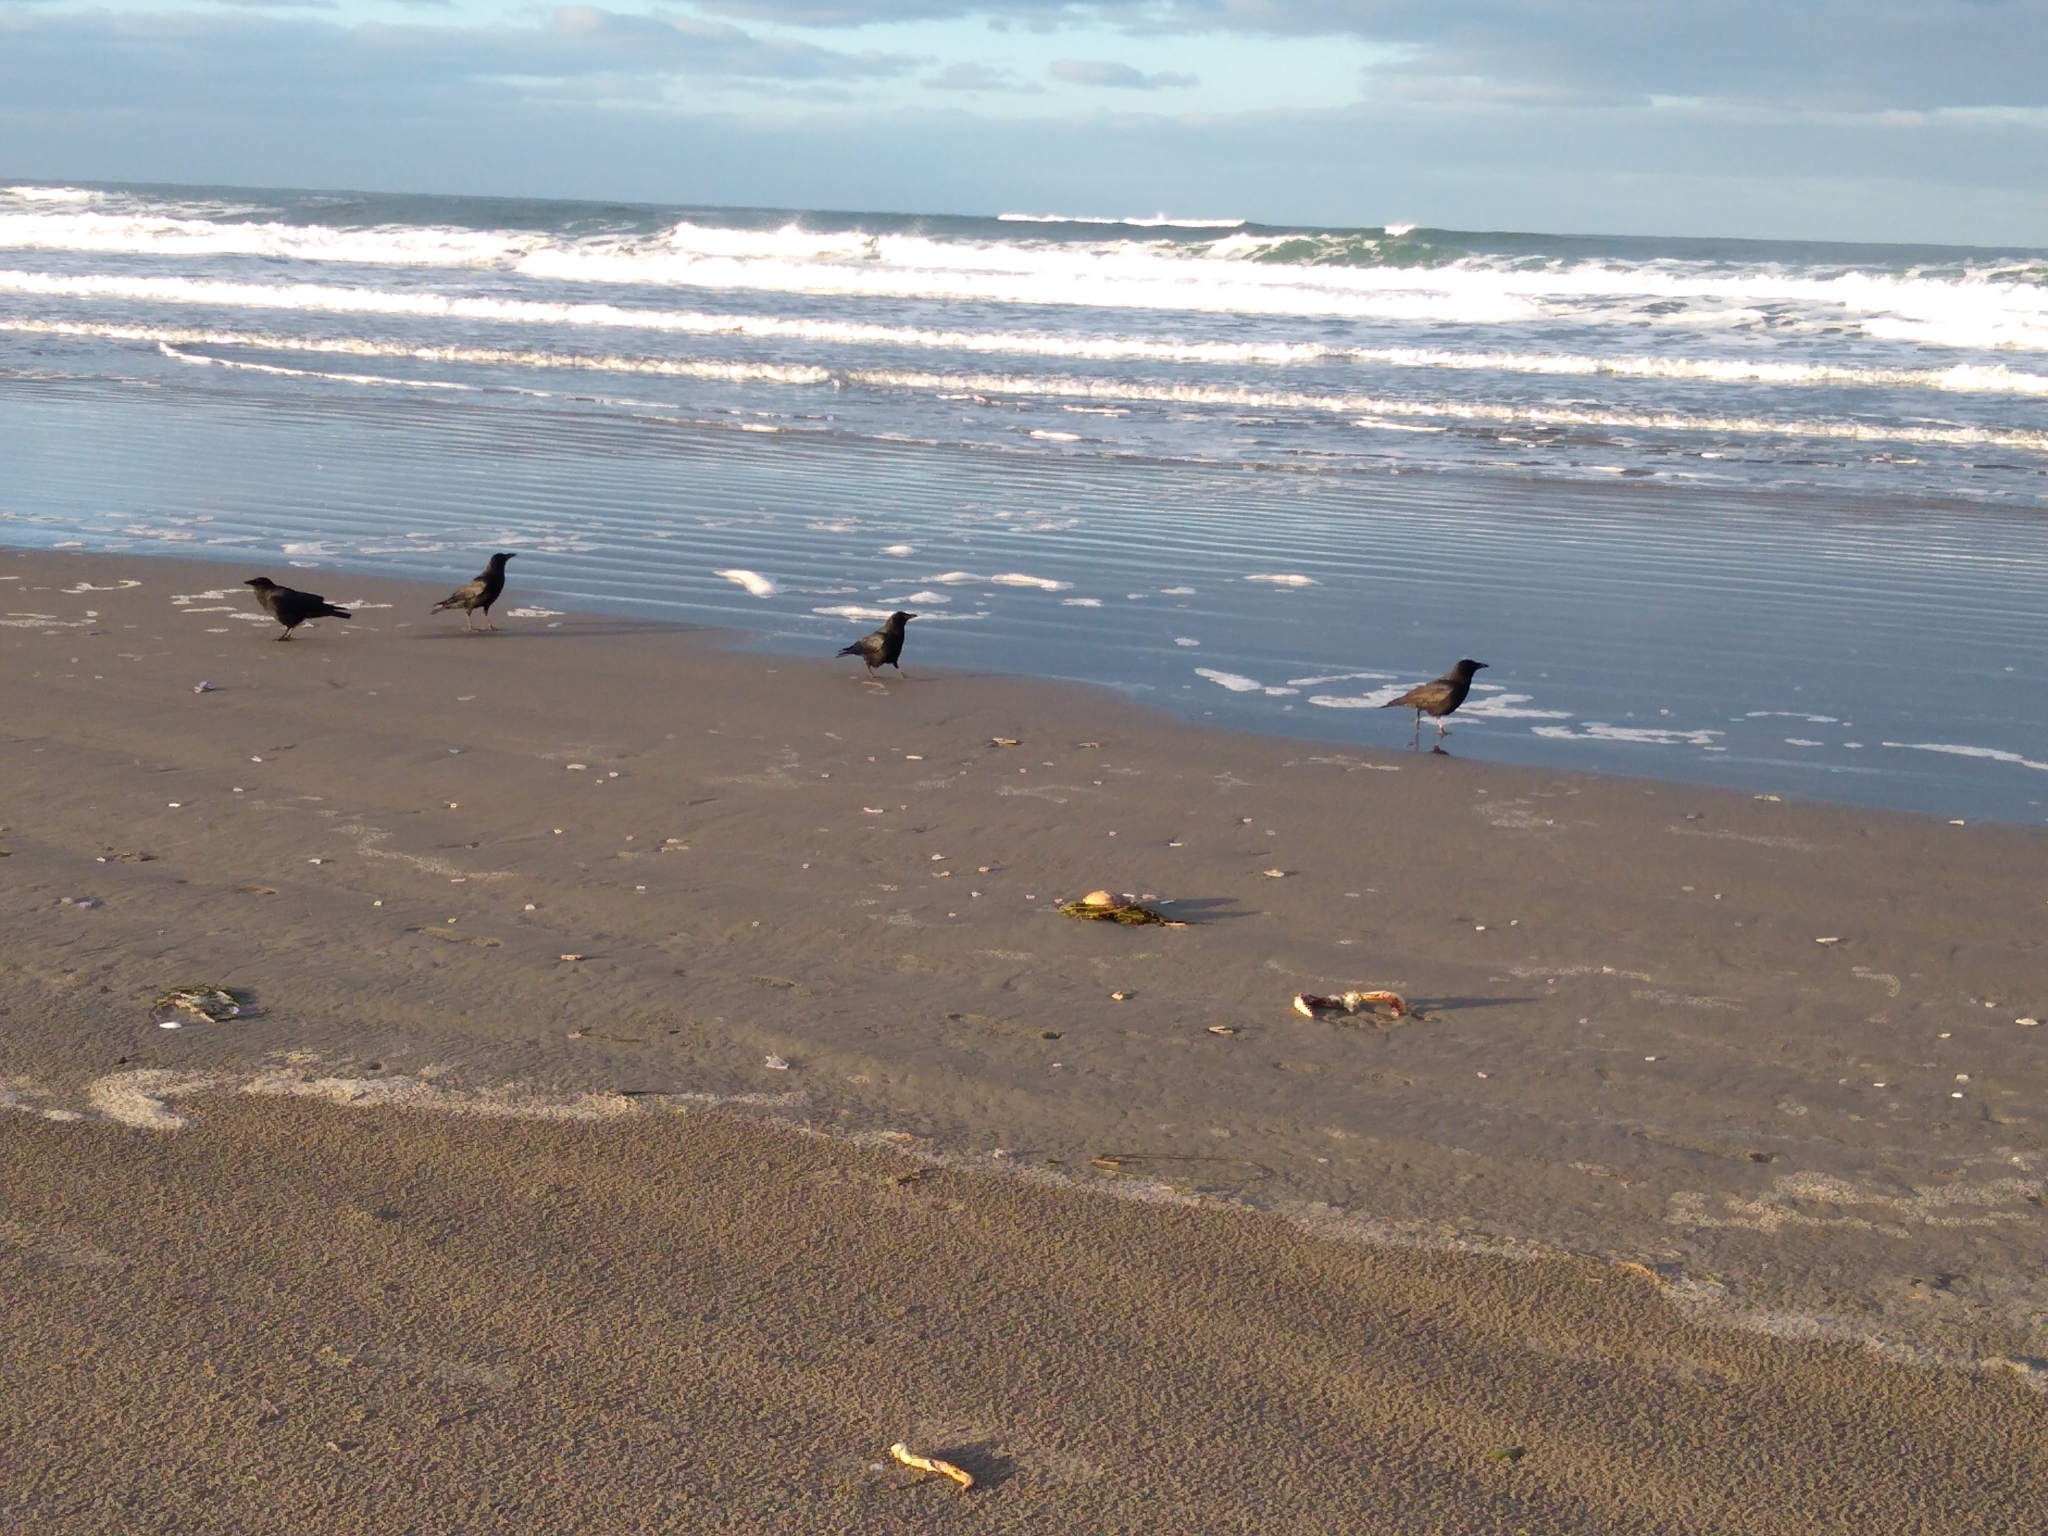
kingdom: Animalia
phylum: Chordata
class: Aves
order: Passeriformes
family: Corvidae
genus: Corvus
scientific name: Corvus brachyrhynchos
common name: American crow
